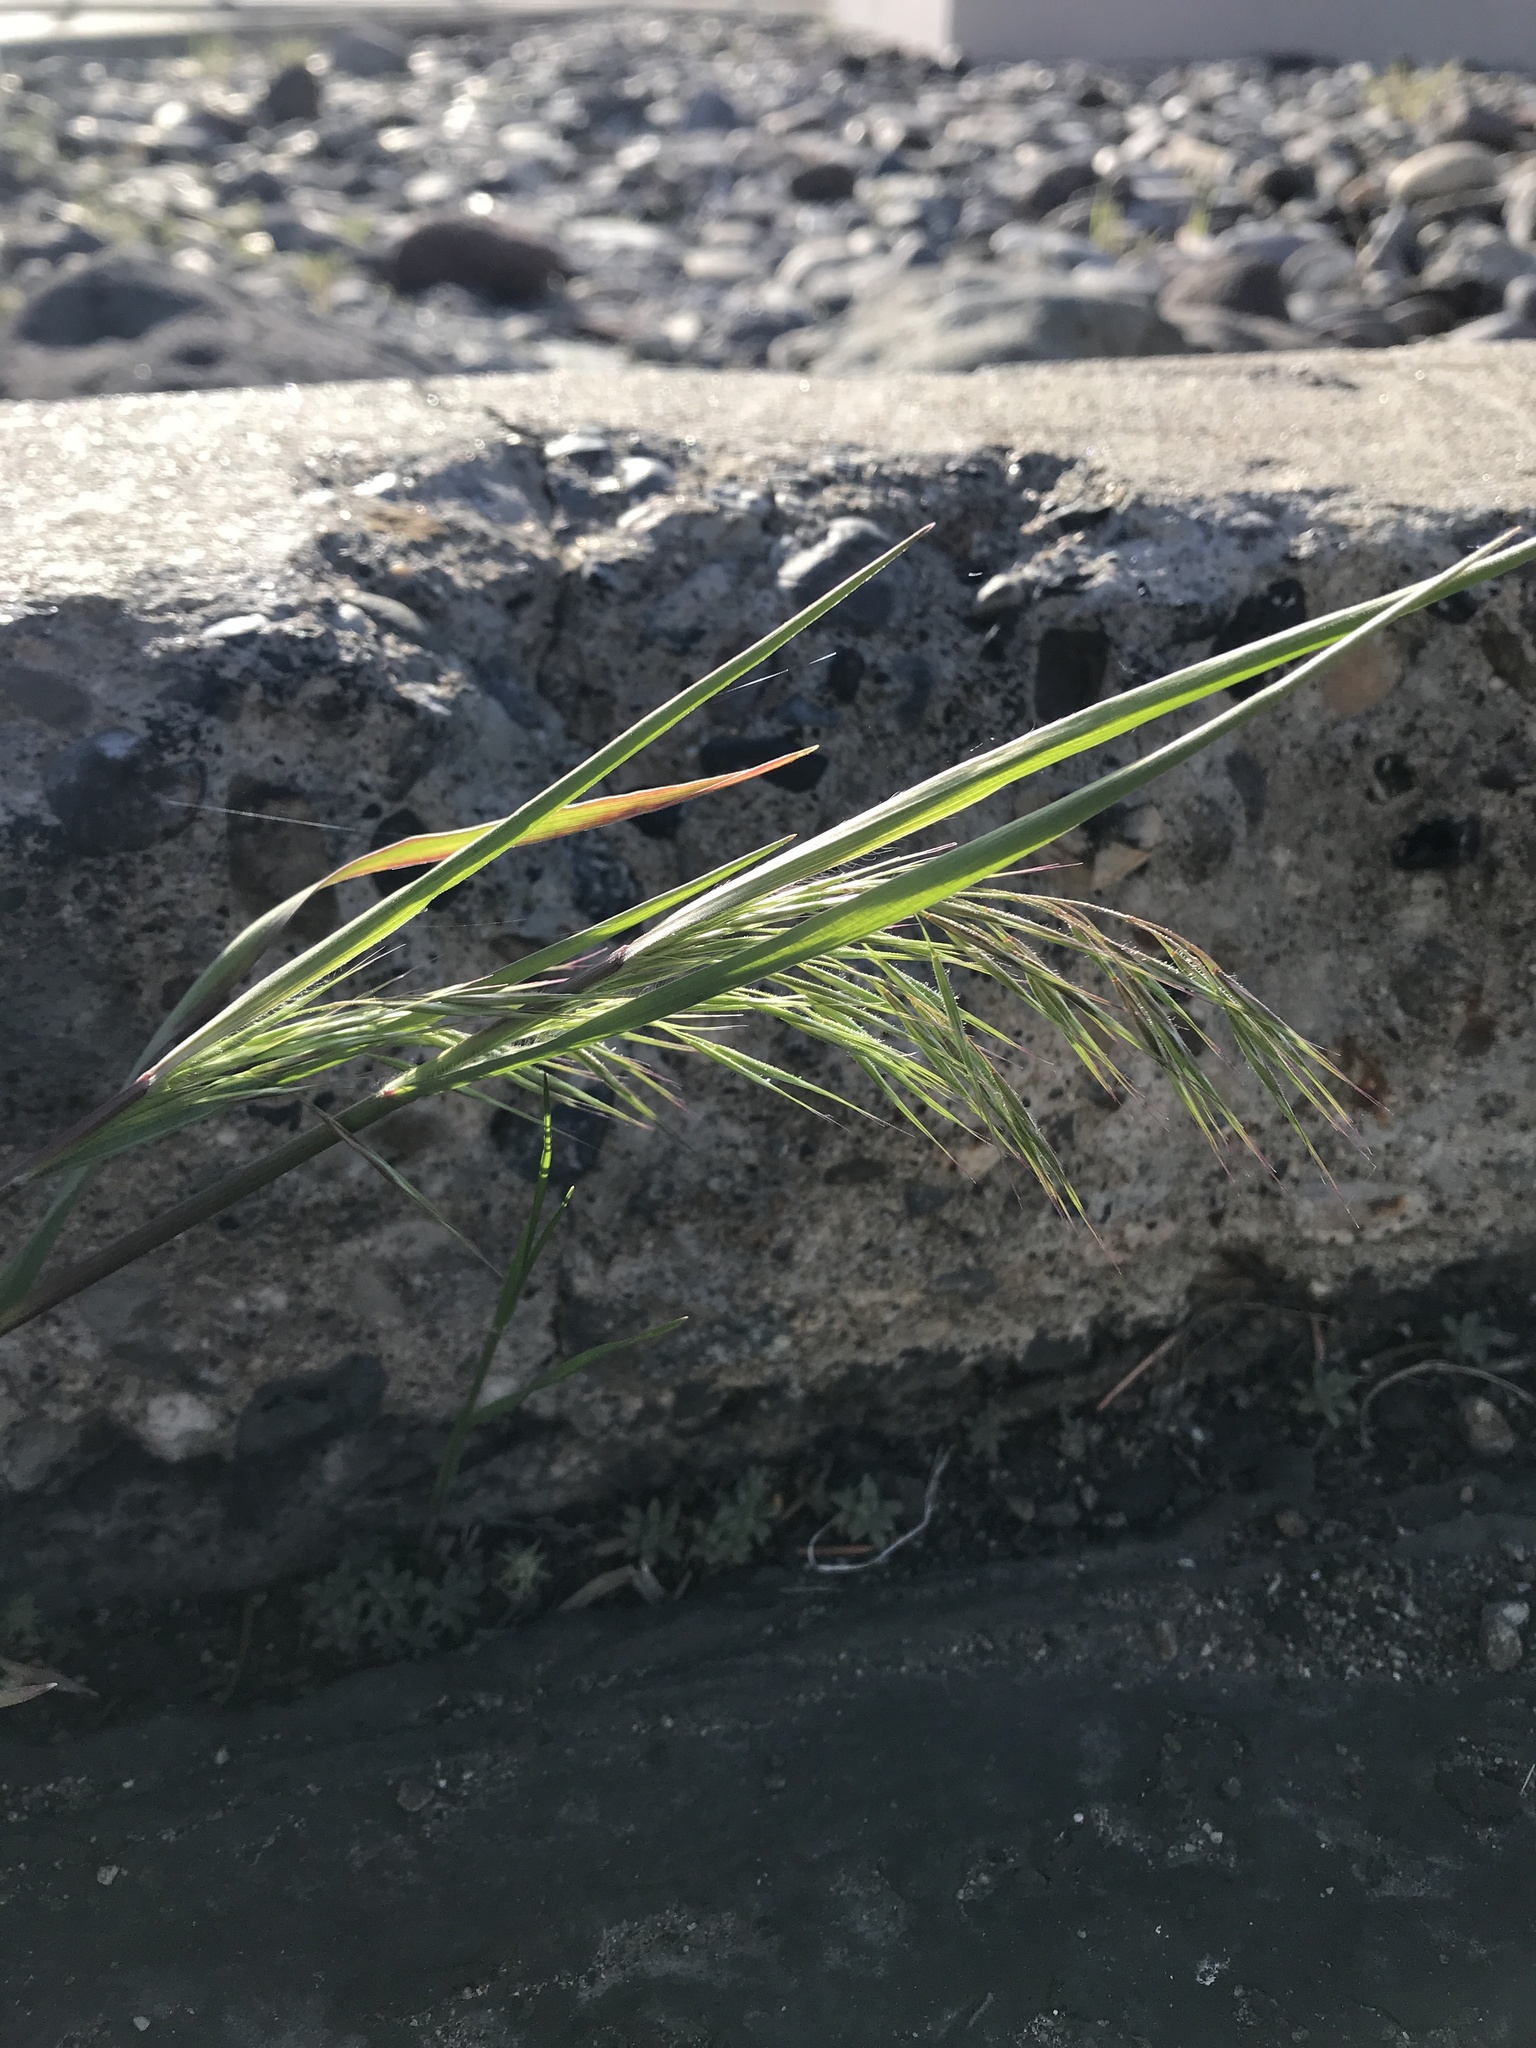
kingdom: Plantae
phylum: Tracheophyta
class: Liliopsida
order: Poales
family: Poaceae
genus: Bromus
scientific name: Bromus tectorum
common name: Cheatgrass
